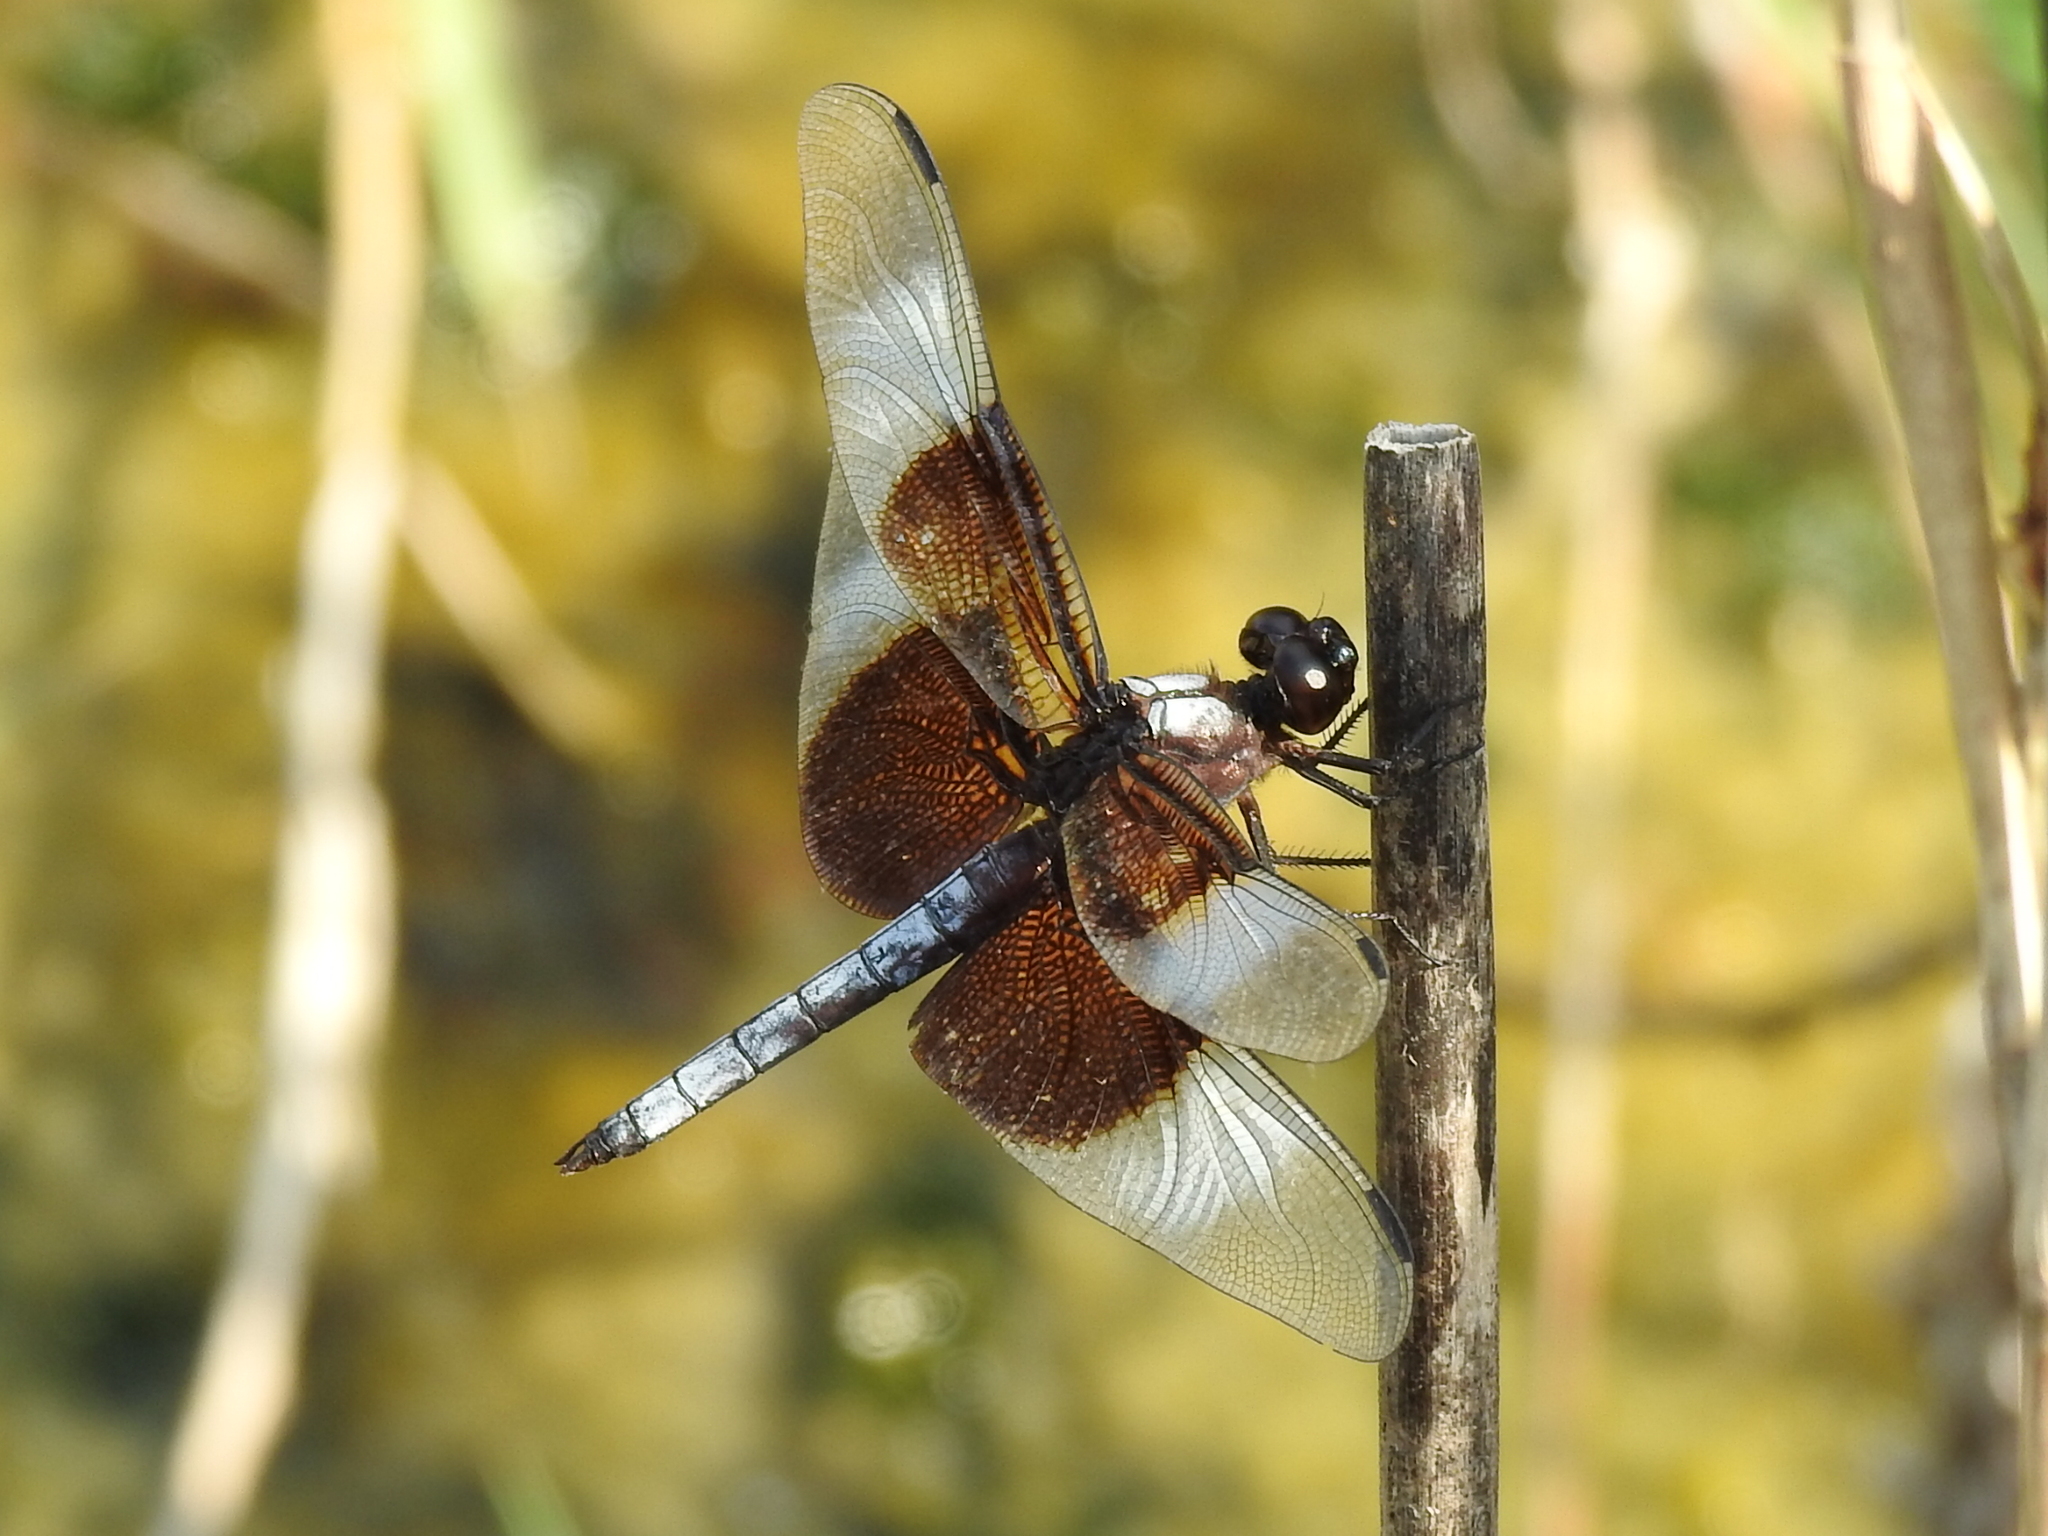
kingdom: Animalia
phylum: Arthropoda
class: Insecta
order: Odonata
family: Libellulidae
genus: Libellula
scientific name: Libellula luctuosa
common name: Widow skimmer
